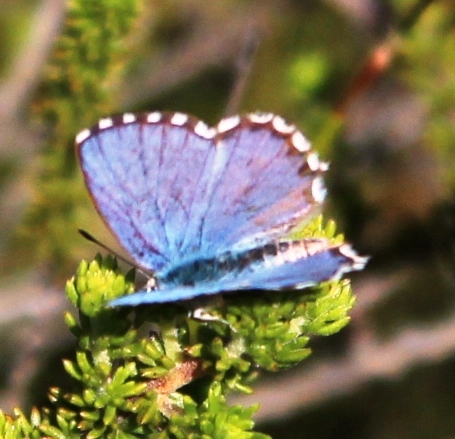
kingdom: Animalia
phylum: Arthropoda
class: Insecta
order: Lepidoptera
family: Lycaenidae
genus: Tarucus
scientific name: Tarucus thespis
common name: Vivid dotted blue
